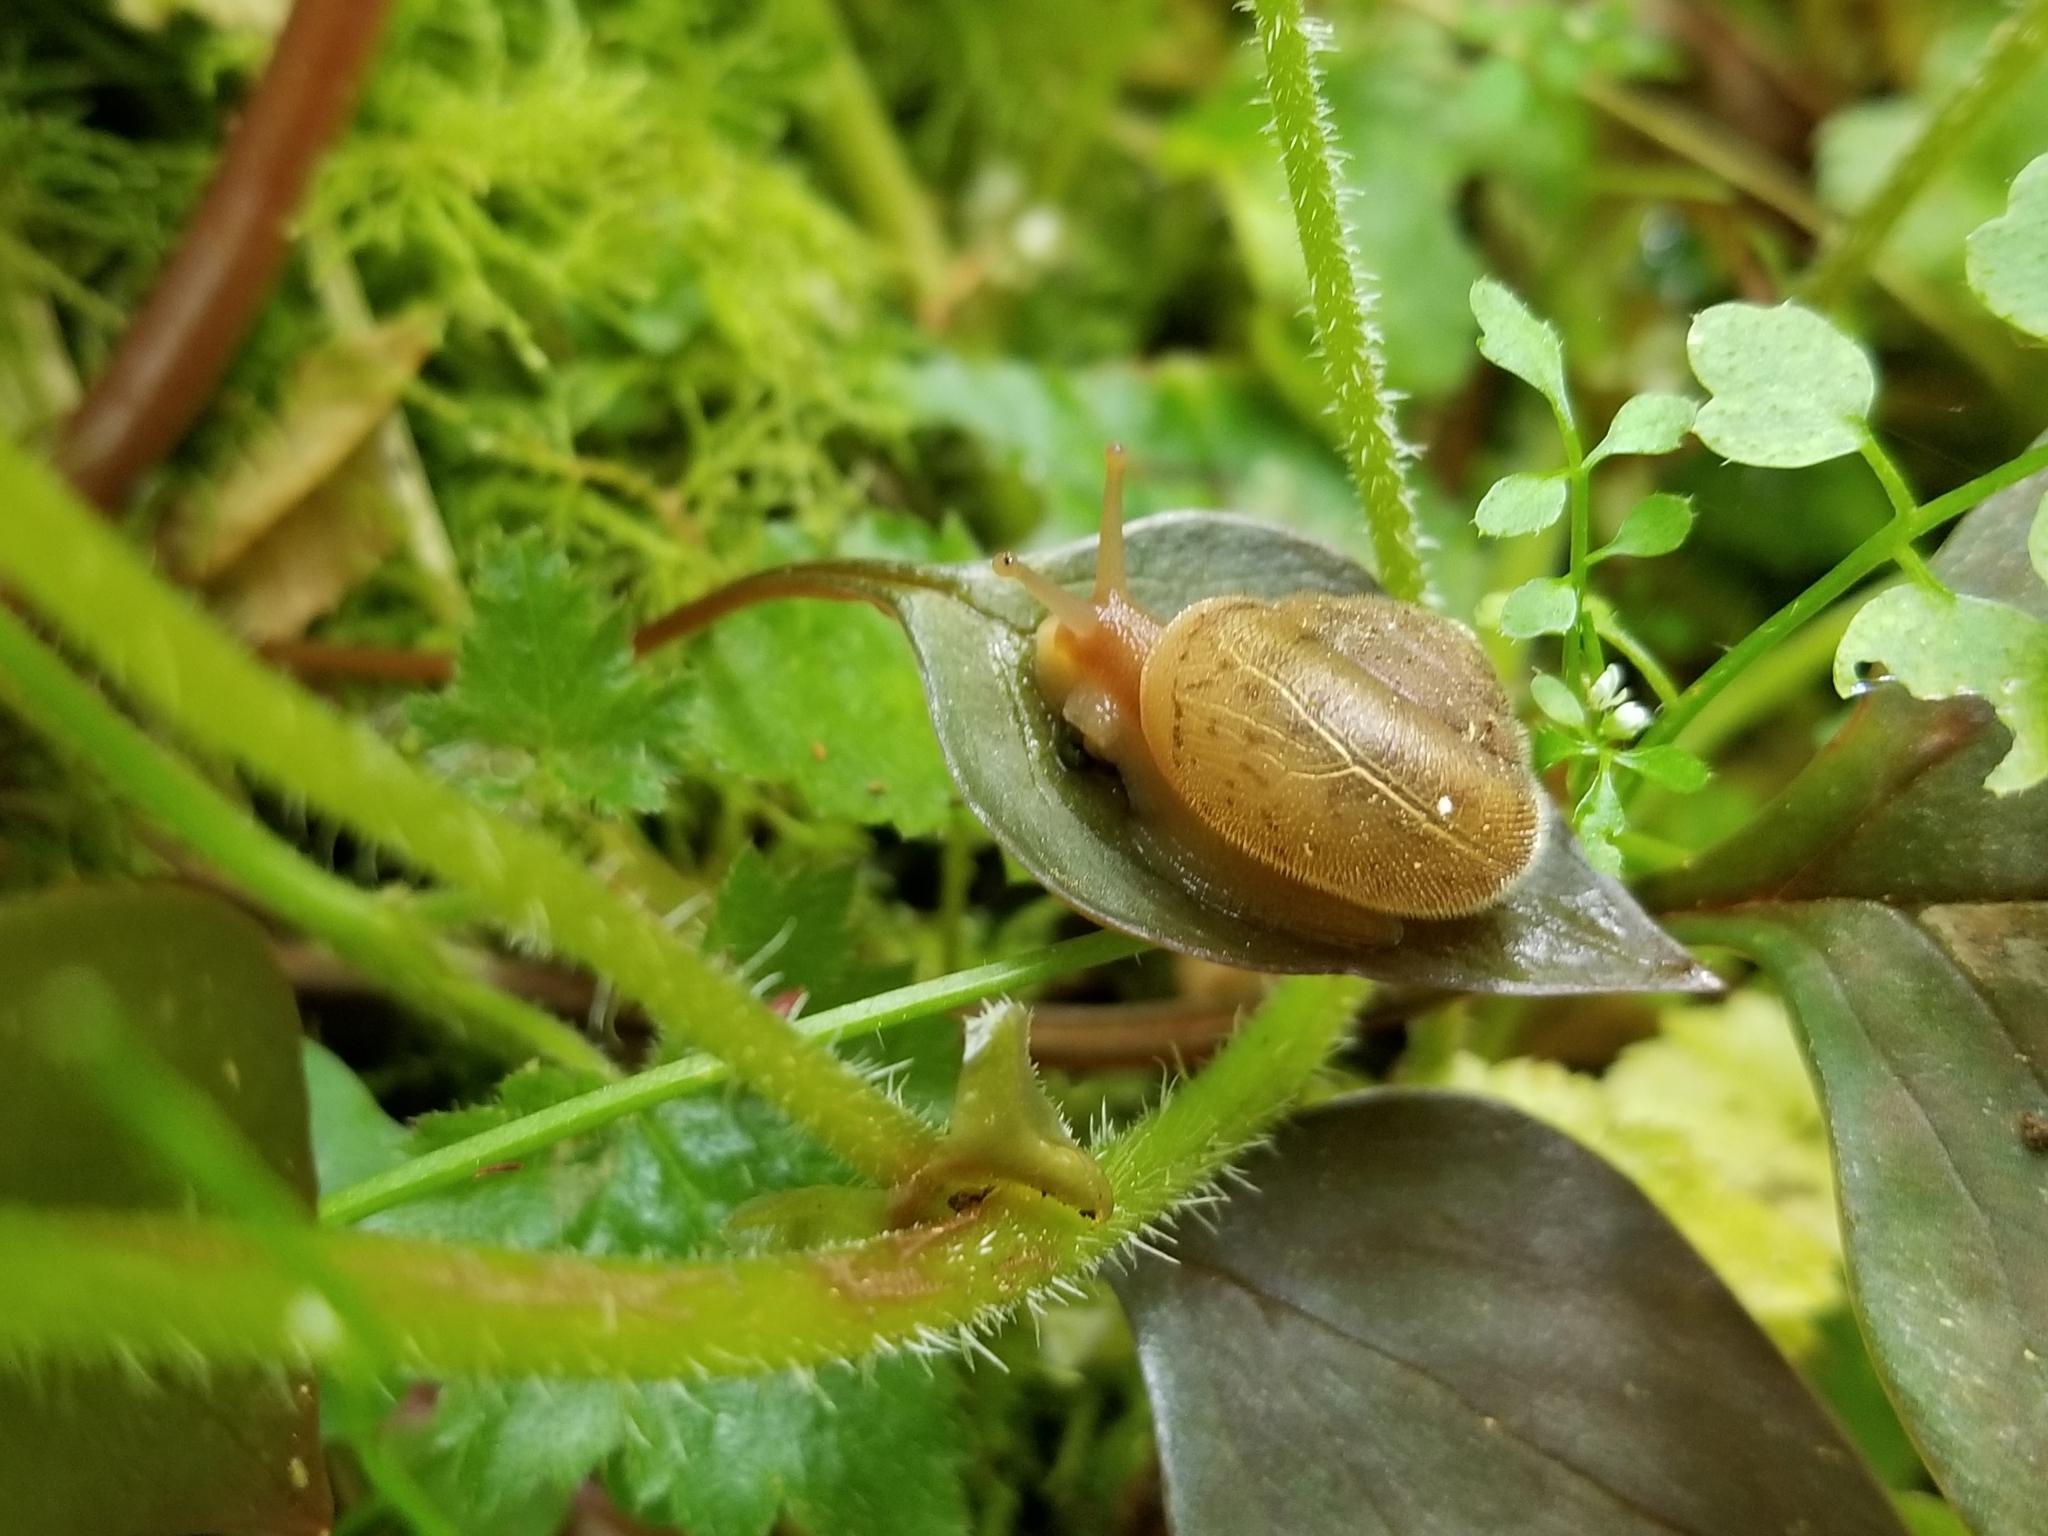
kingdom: Animalia
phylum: Mollusca
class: Gastropoda
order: Stylommatophora
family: Polygyridae
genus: Vespericola
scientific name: Vespericola columbianus
